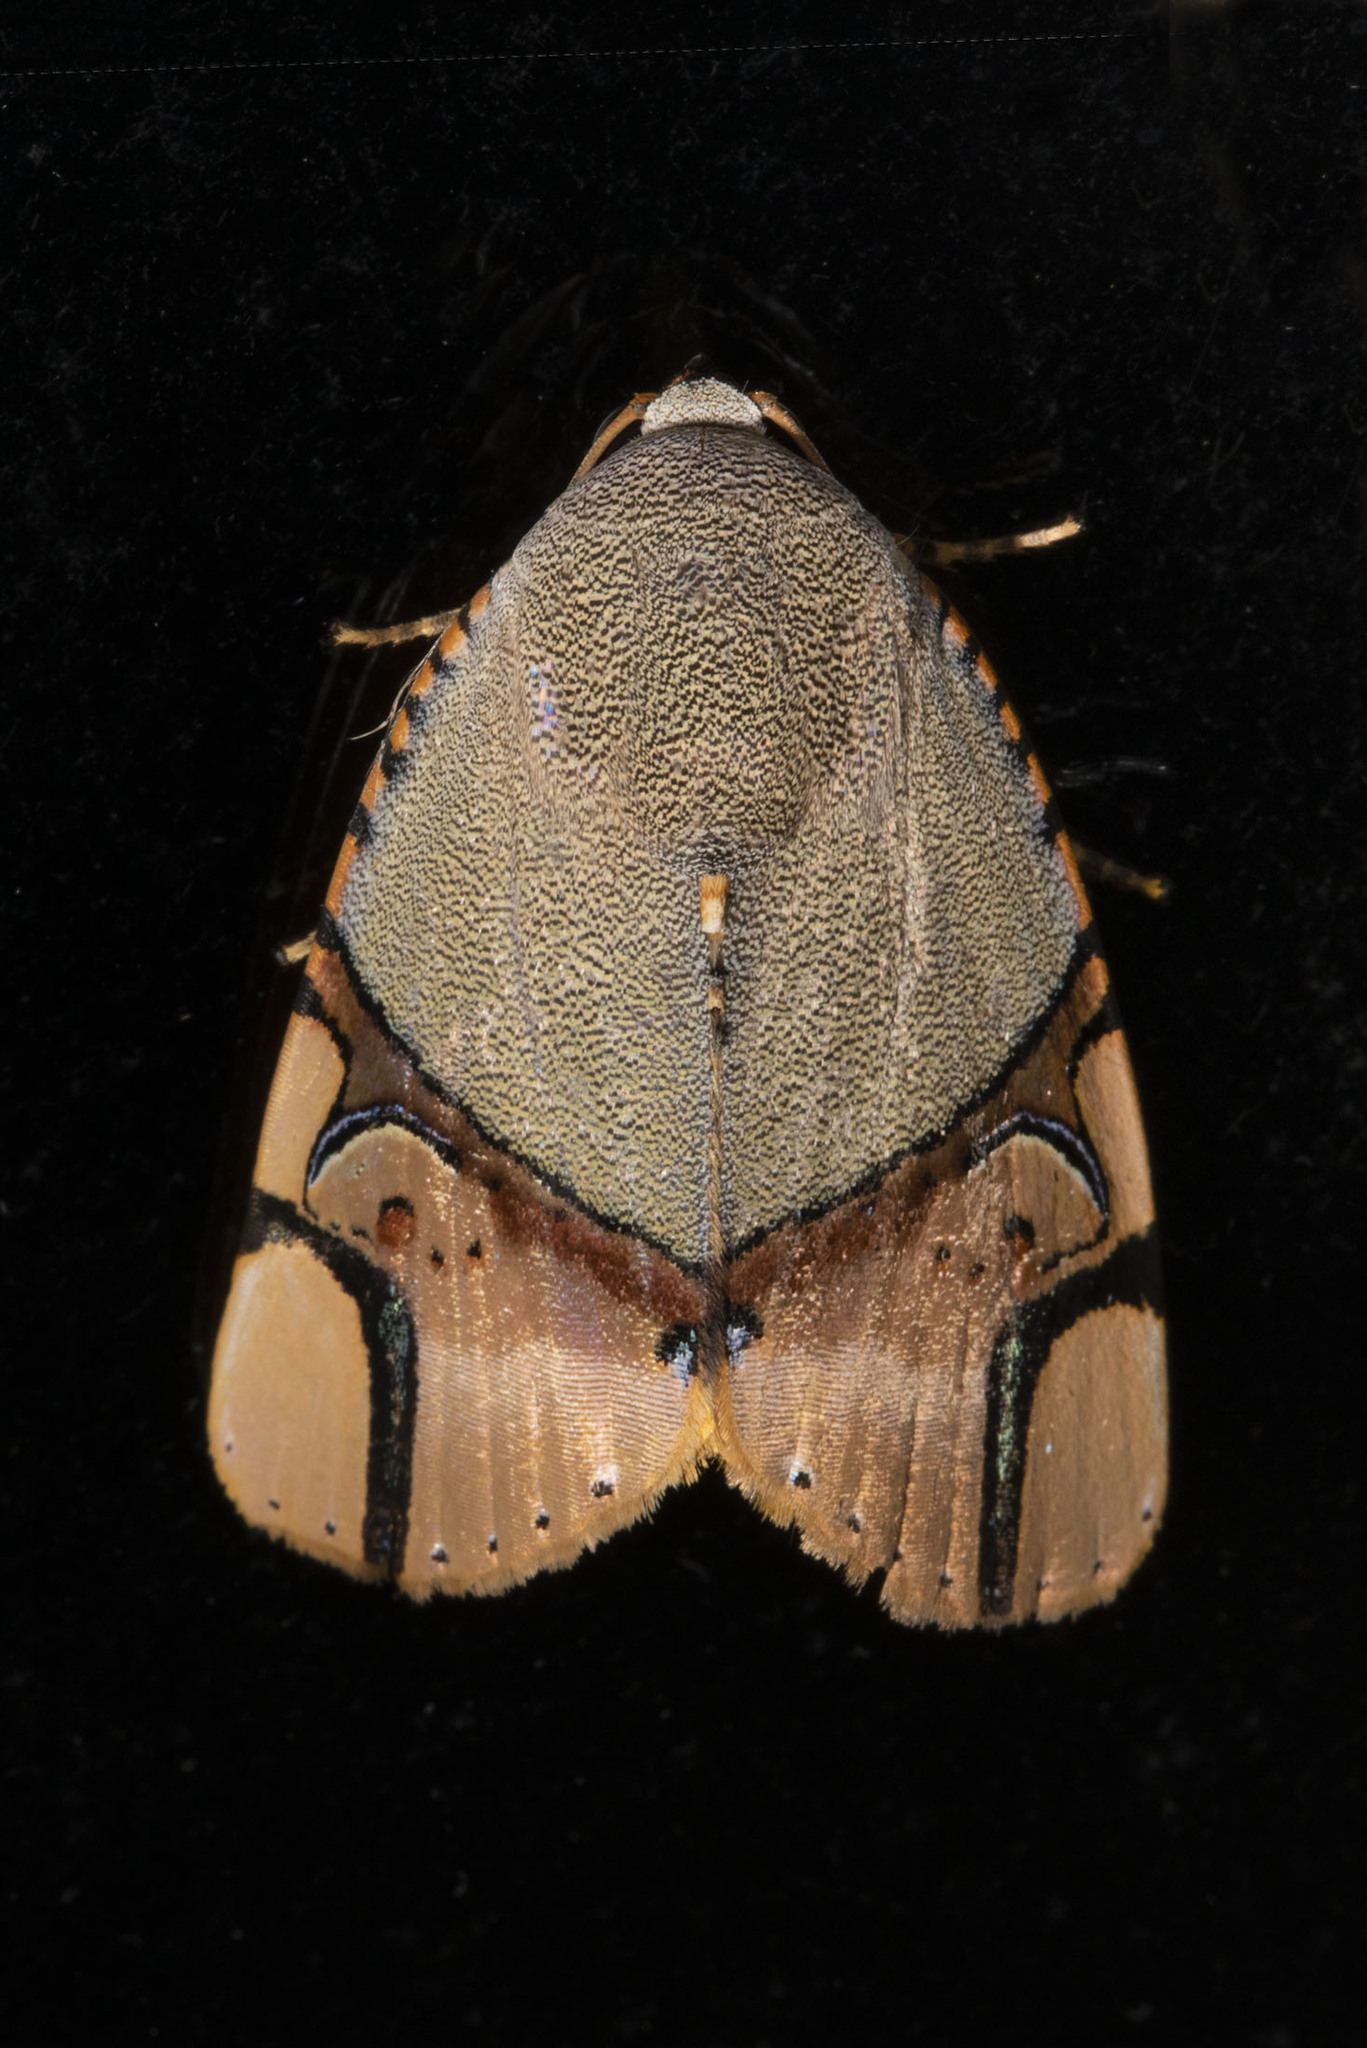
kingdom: Animalia
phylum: Arthropoda
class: Insecta
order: Lepidoptera
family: Erebidae
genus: Ramadasa
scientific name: Ramadasa pavo
